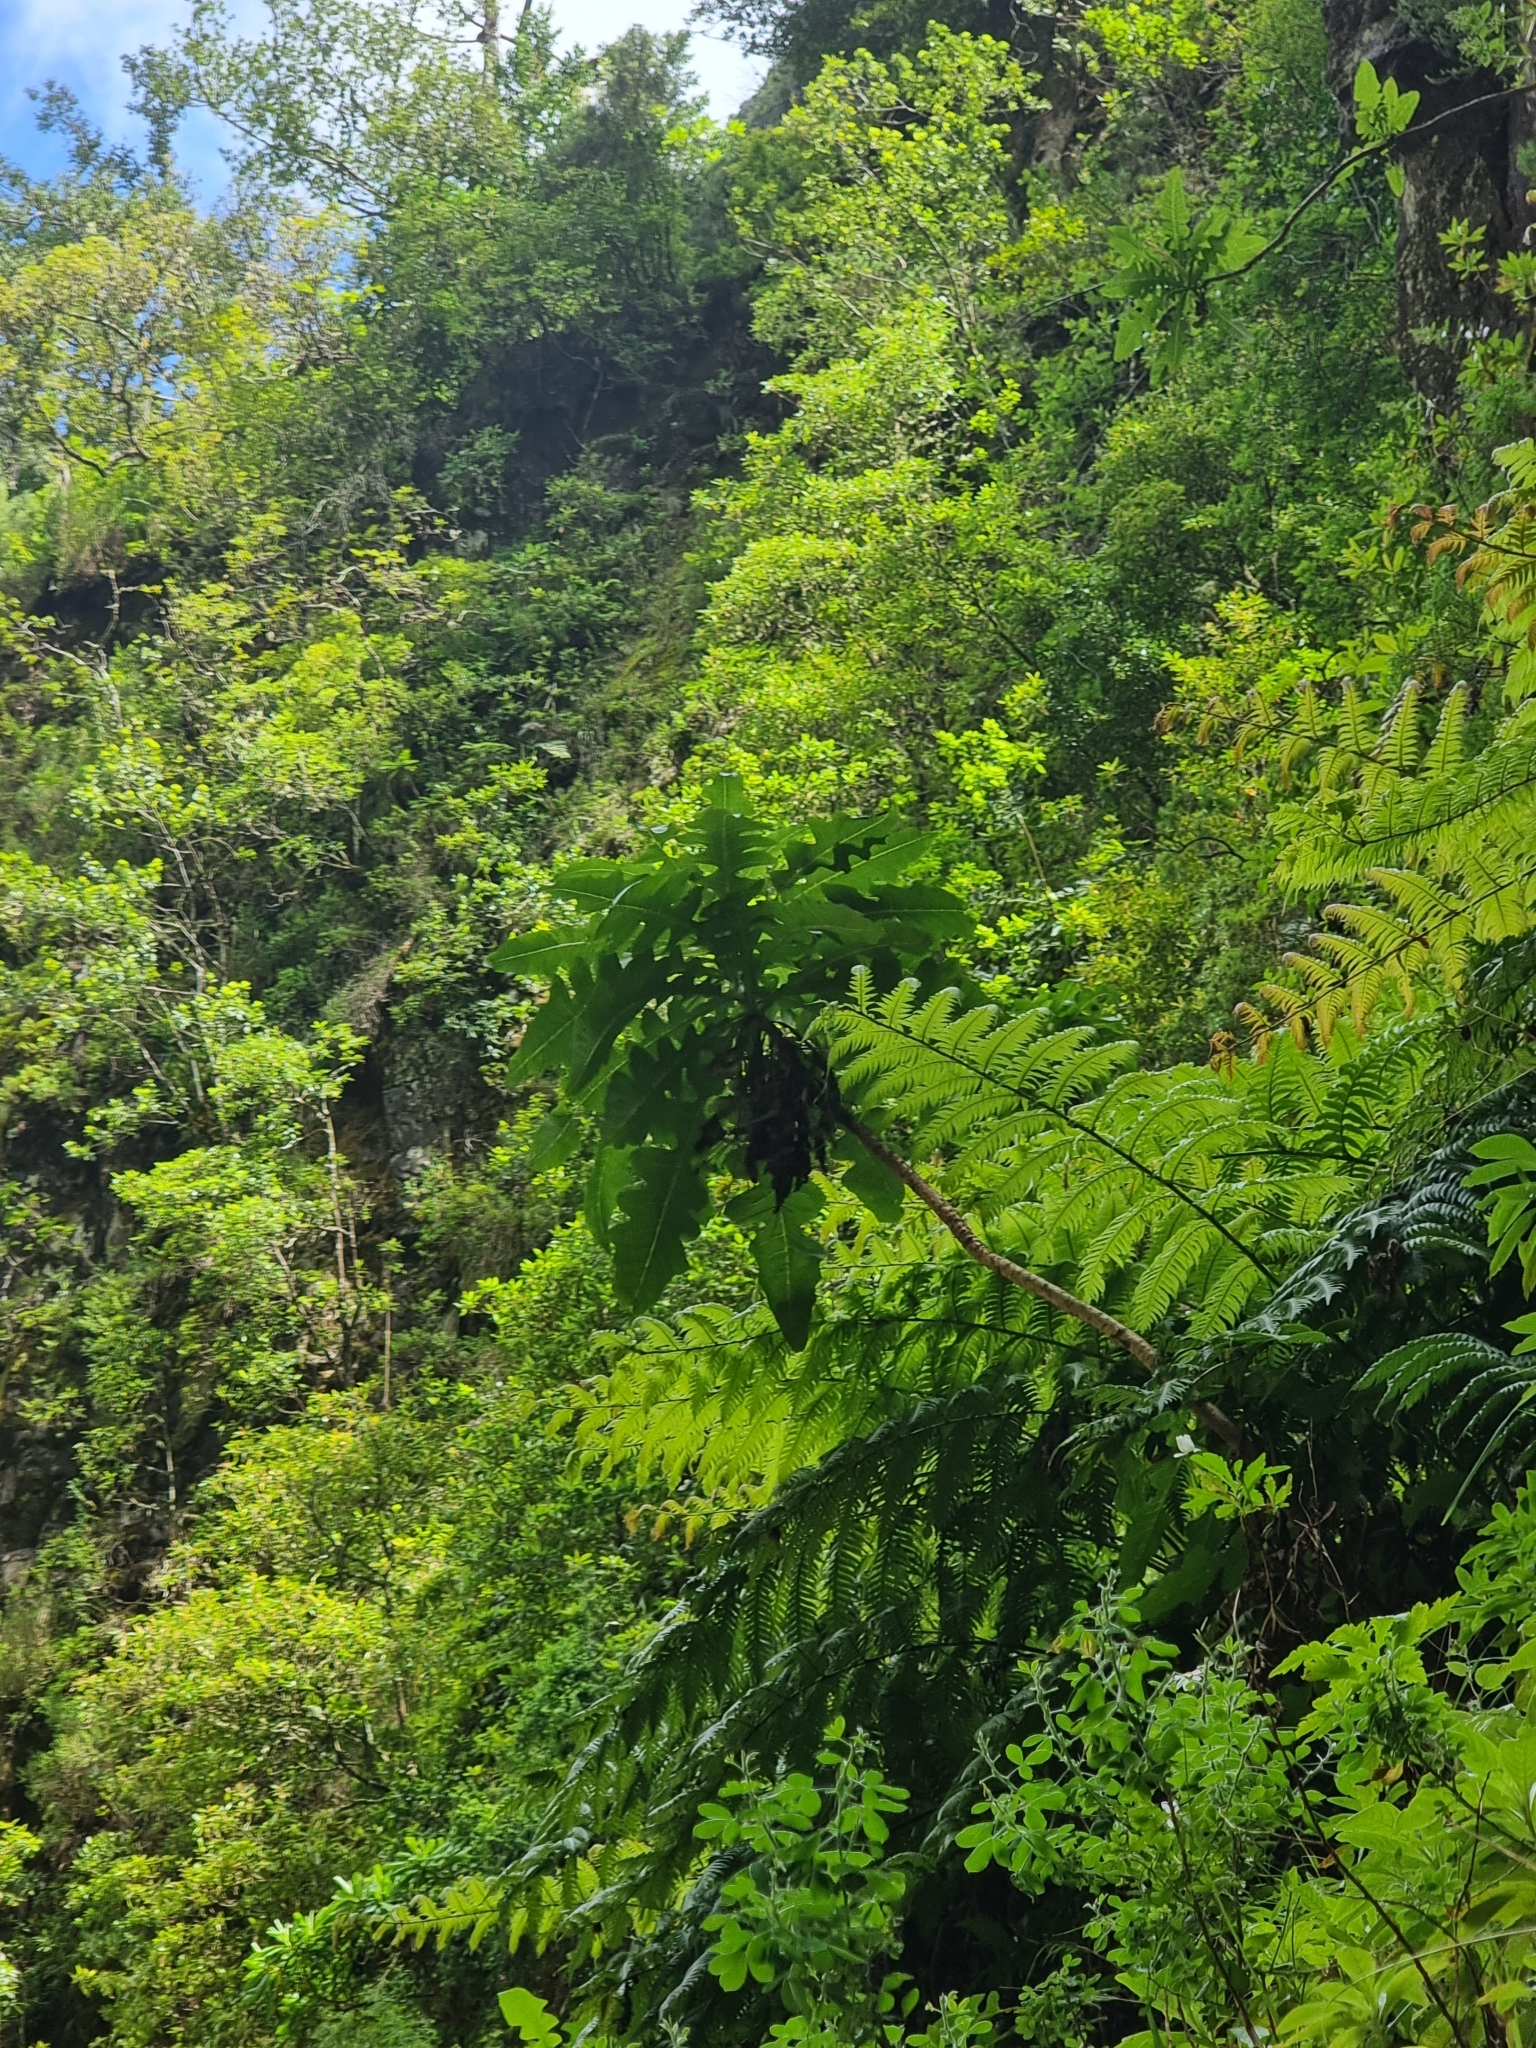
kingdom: Plantae
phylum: Tracheophyta
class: Magnoliopsida
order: Asterales
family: Asteraceae
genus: Sonchus
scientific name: Sonchus fruticosus
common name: Shrubby sow-thistle
